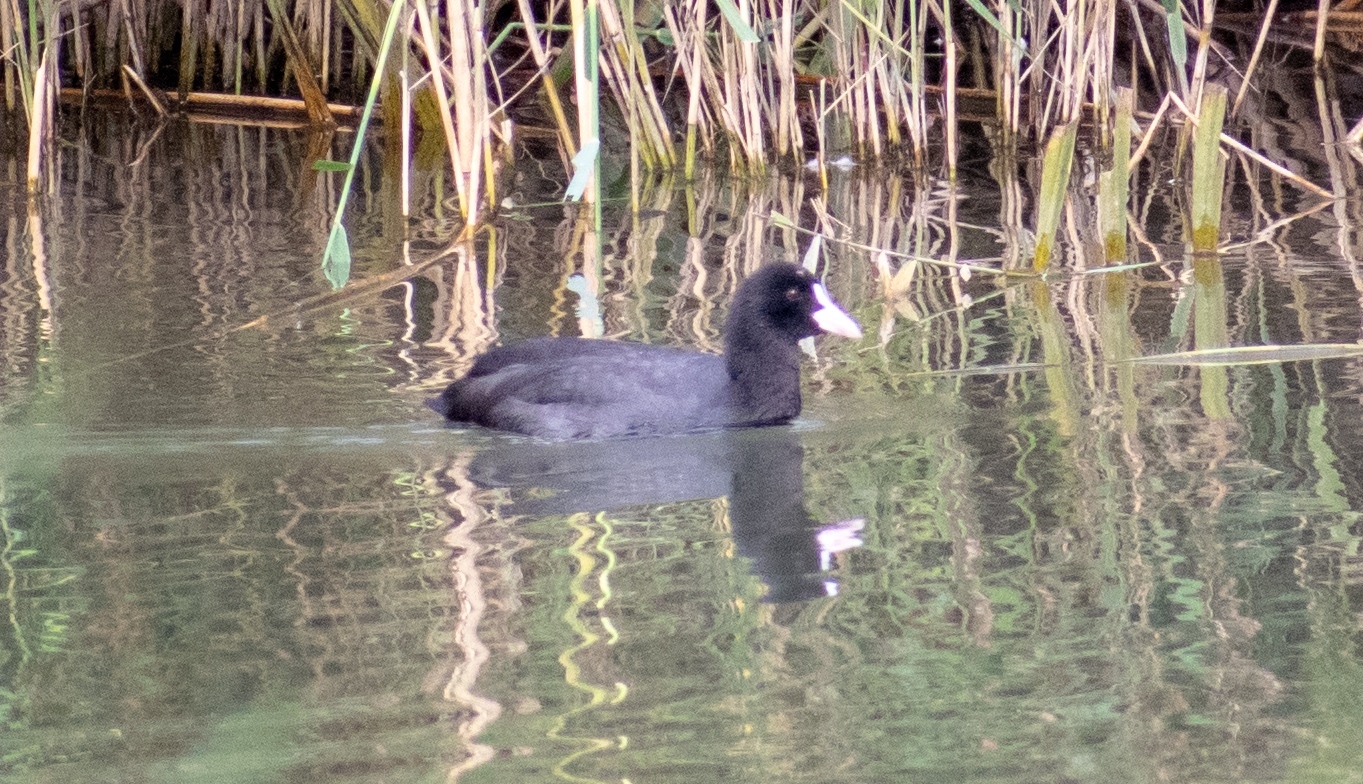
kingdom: Animalia
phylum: Chordata
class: Aves
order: Gruiformes
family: Rallidae
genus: Fulica
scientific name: Fulica atra
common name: Eurasian coot
